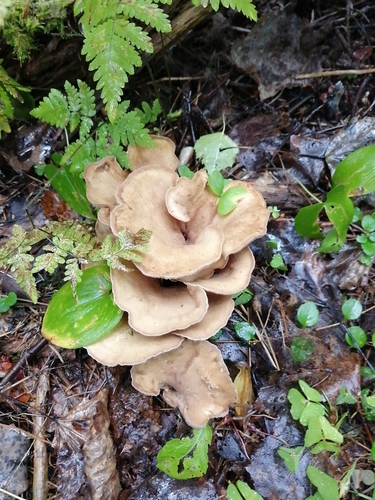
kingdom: Fungi
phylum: Basidiomycota
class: Agaricomycetes
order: Gomphales
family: Gomphaceae
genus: Gomphus
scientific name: Gomphus clavatus
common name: Pig's ear
